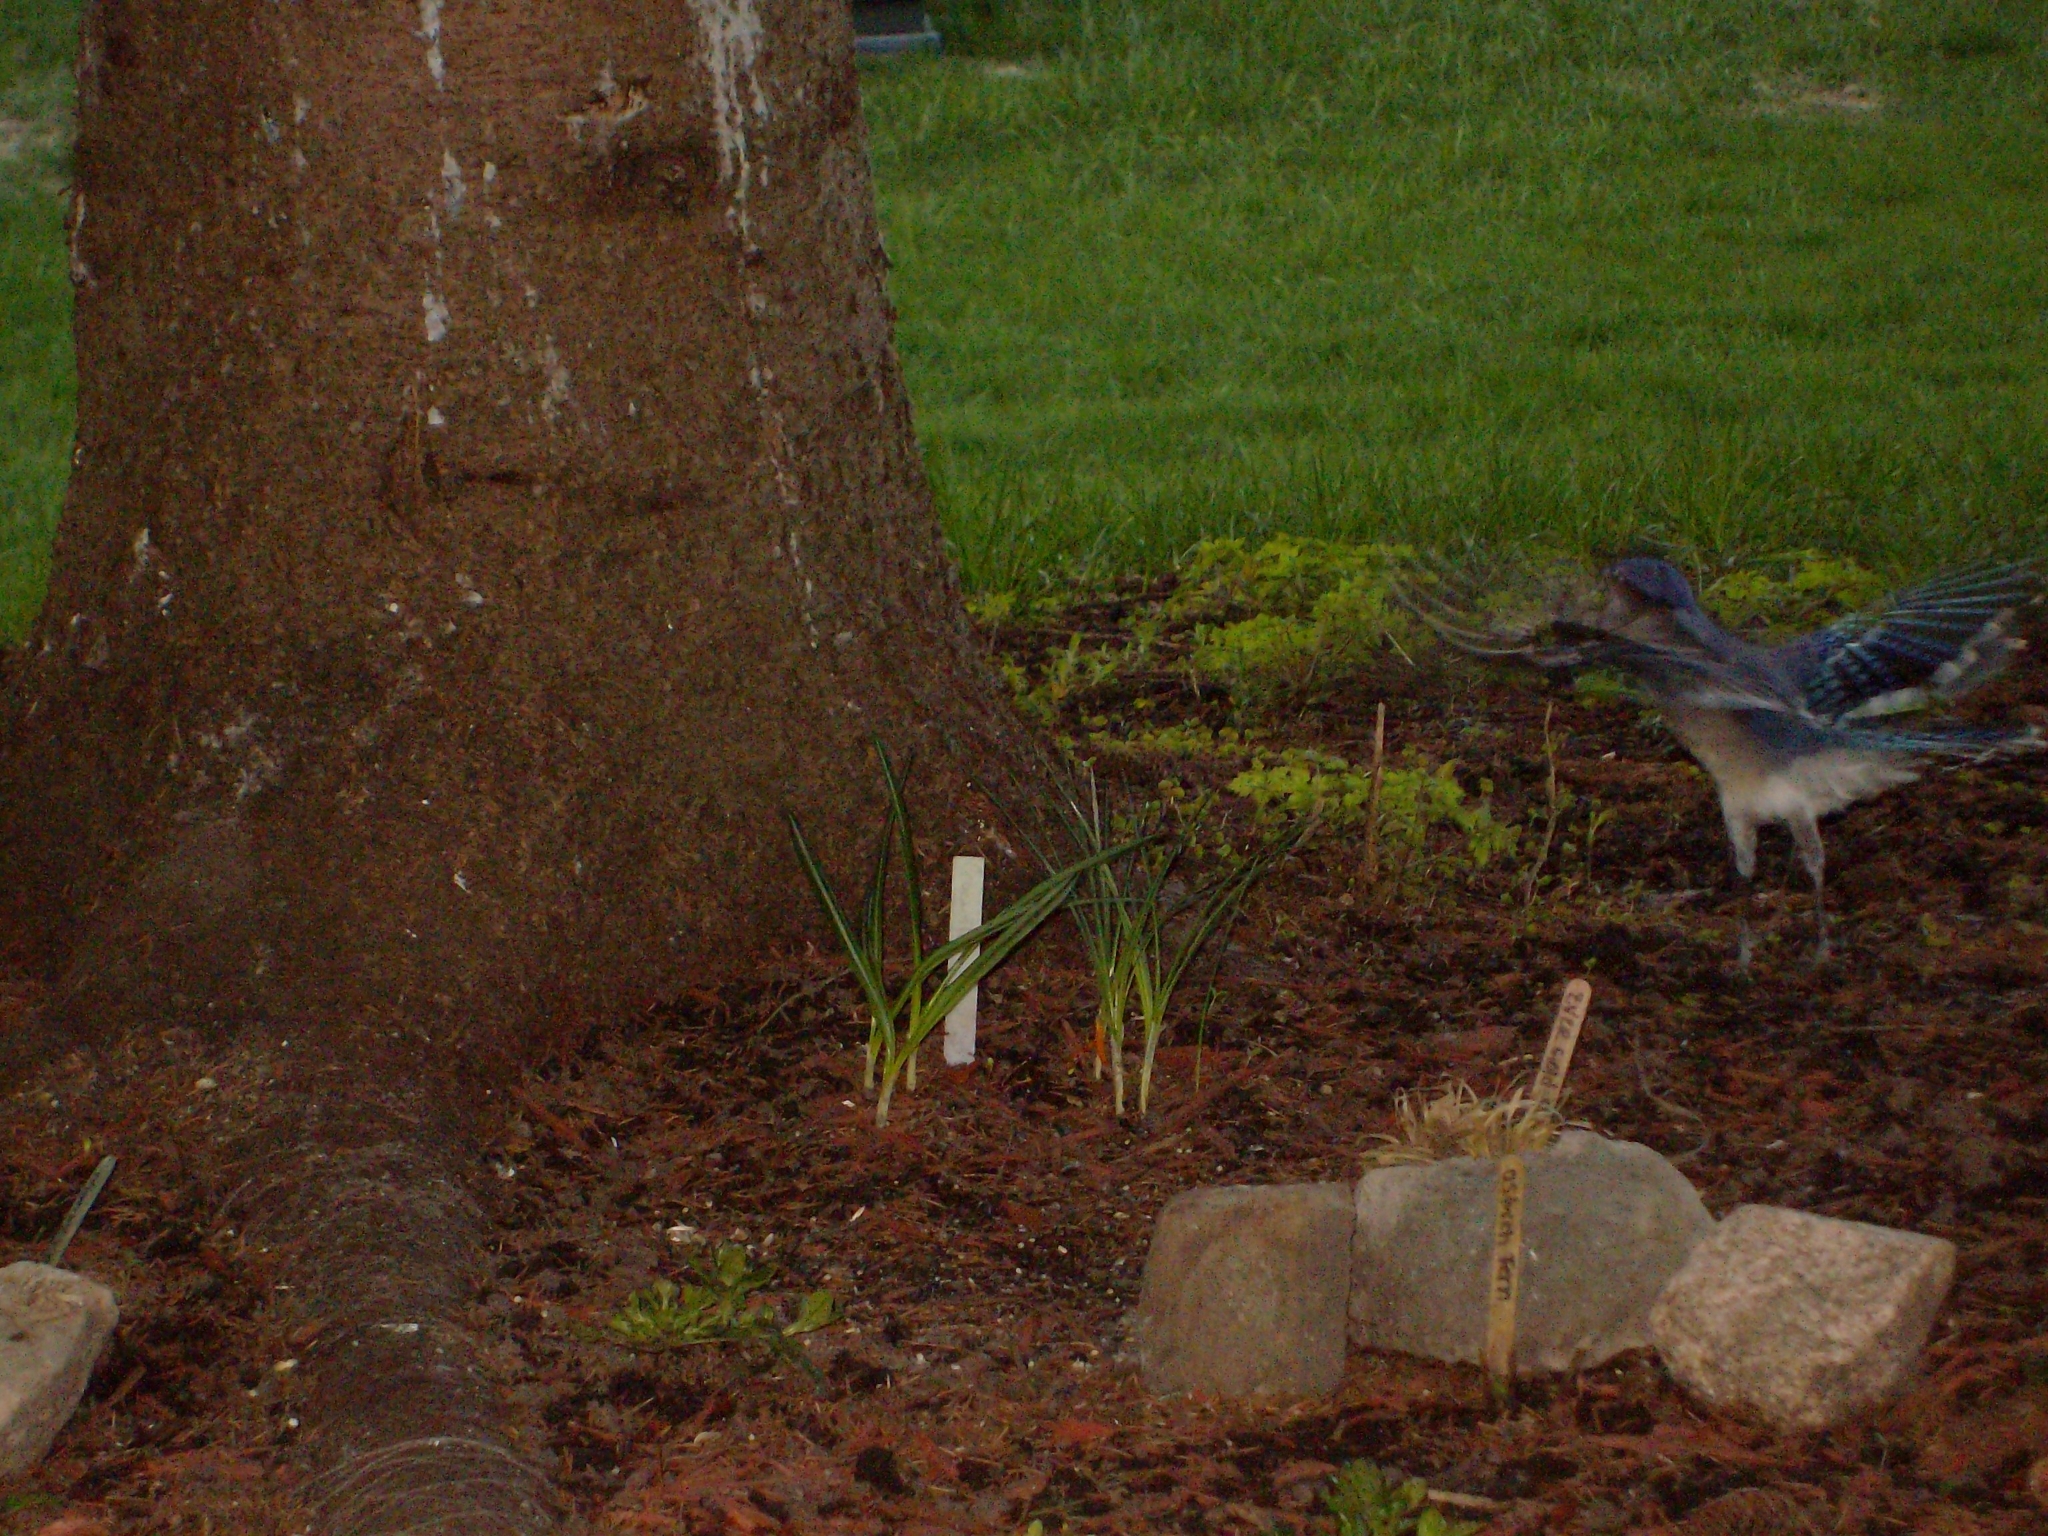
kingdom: Animalia
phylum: Chordata
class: Aves
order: Passeriformes
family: Corvidae
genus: Cyanocitta
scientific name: Cyanocitta cristata
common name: Blue jay
